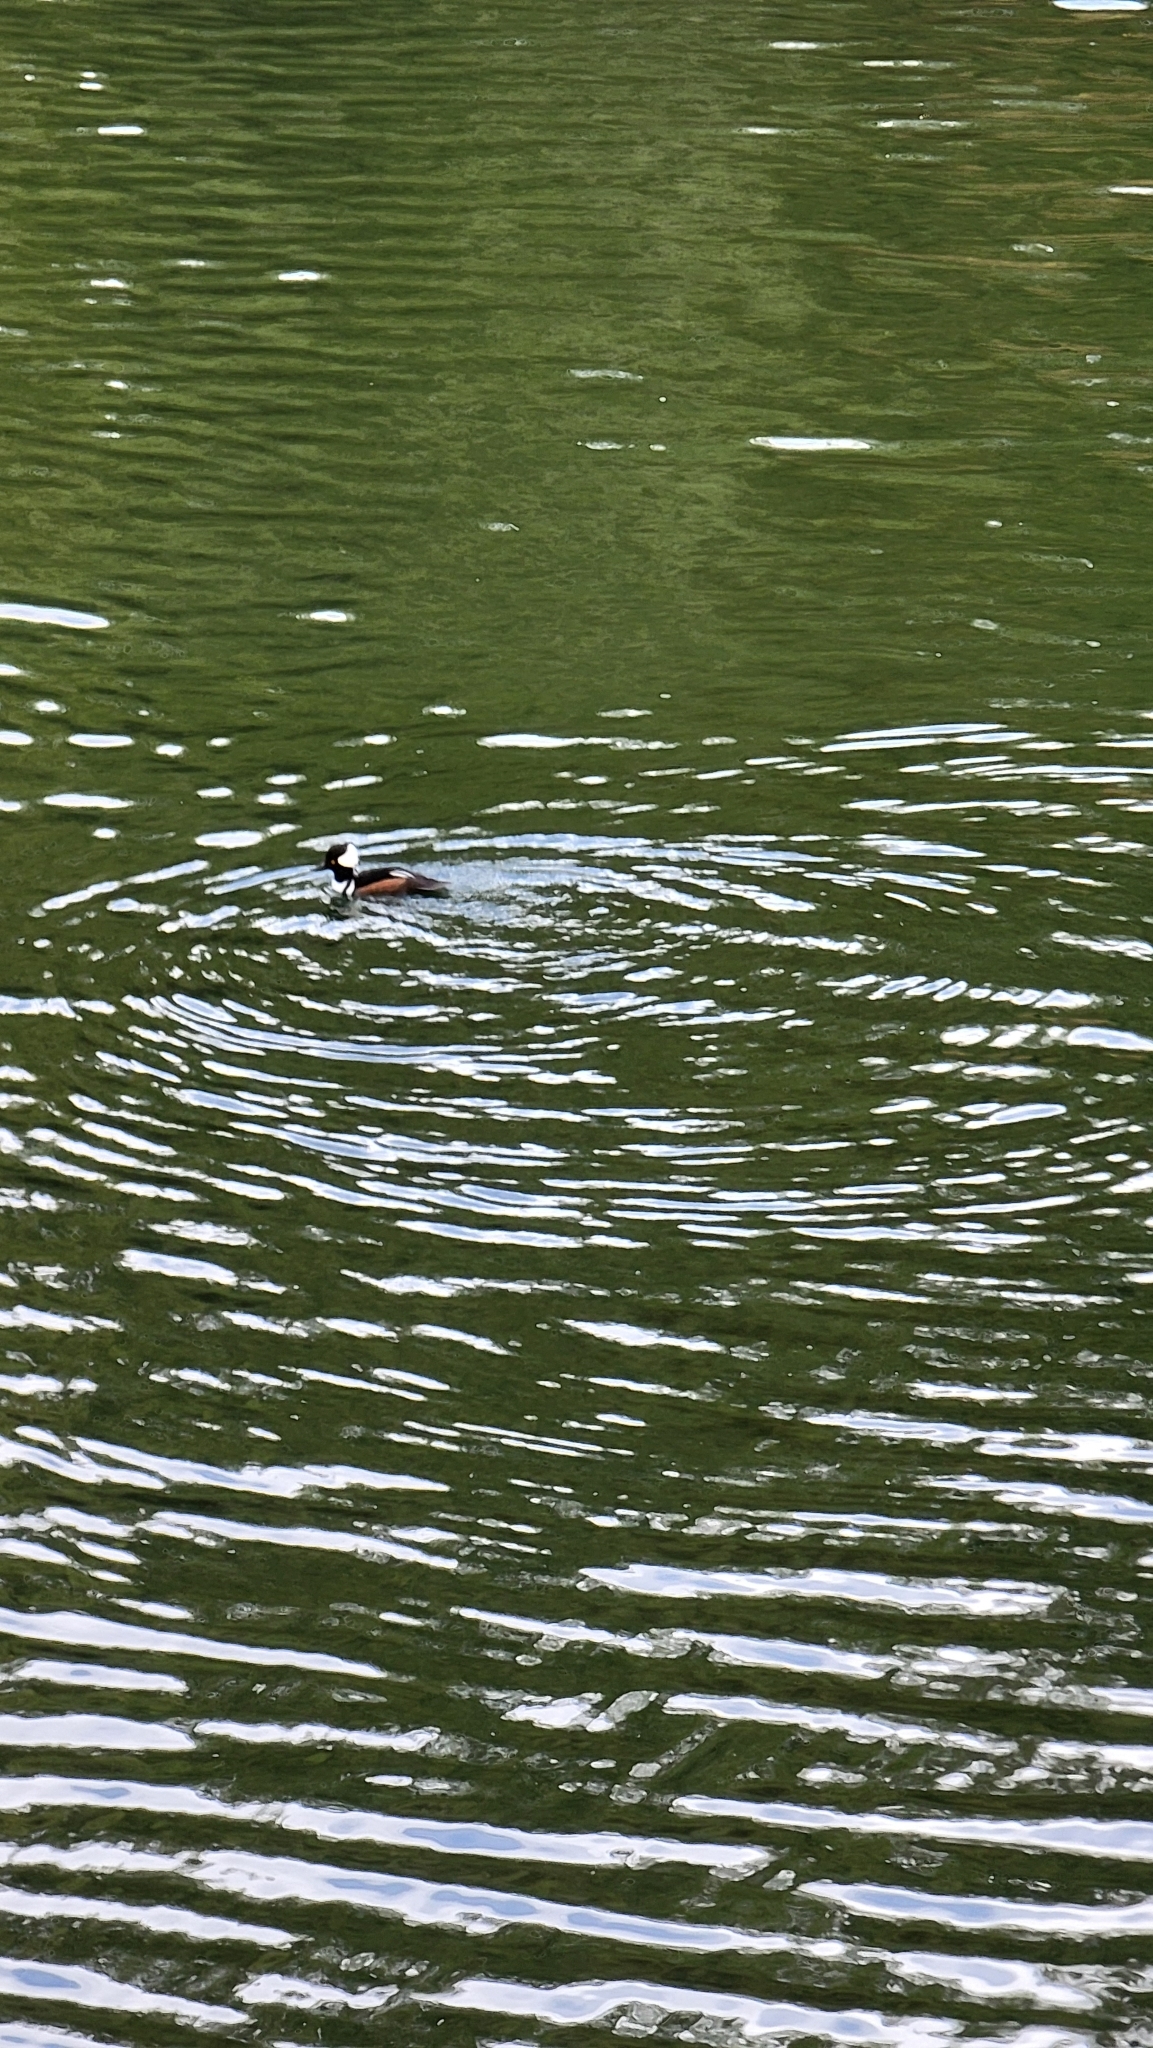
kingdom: Animalia
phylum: Chordata
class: Aves
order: Anseriformes
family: Anatidae
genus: Lophodytes
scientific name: Lophodytes cucullatus
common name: Hooded merganser
